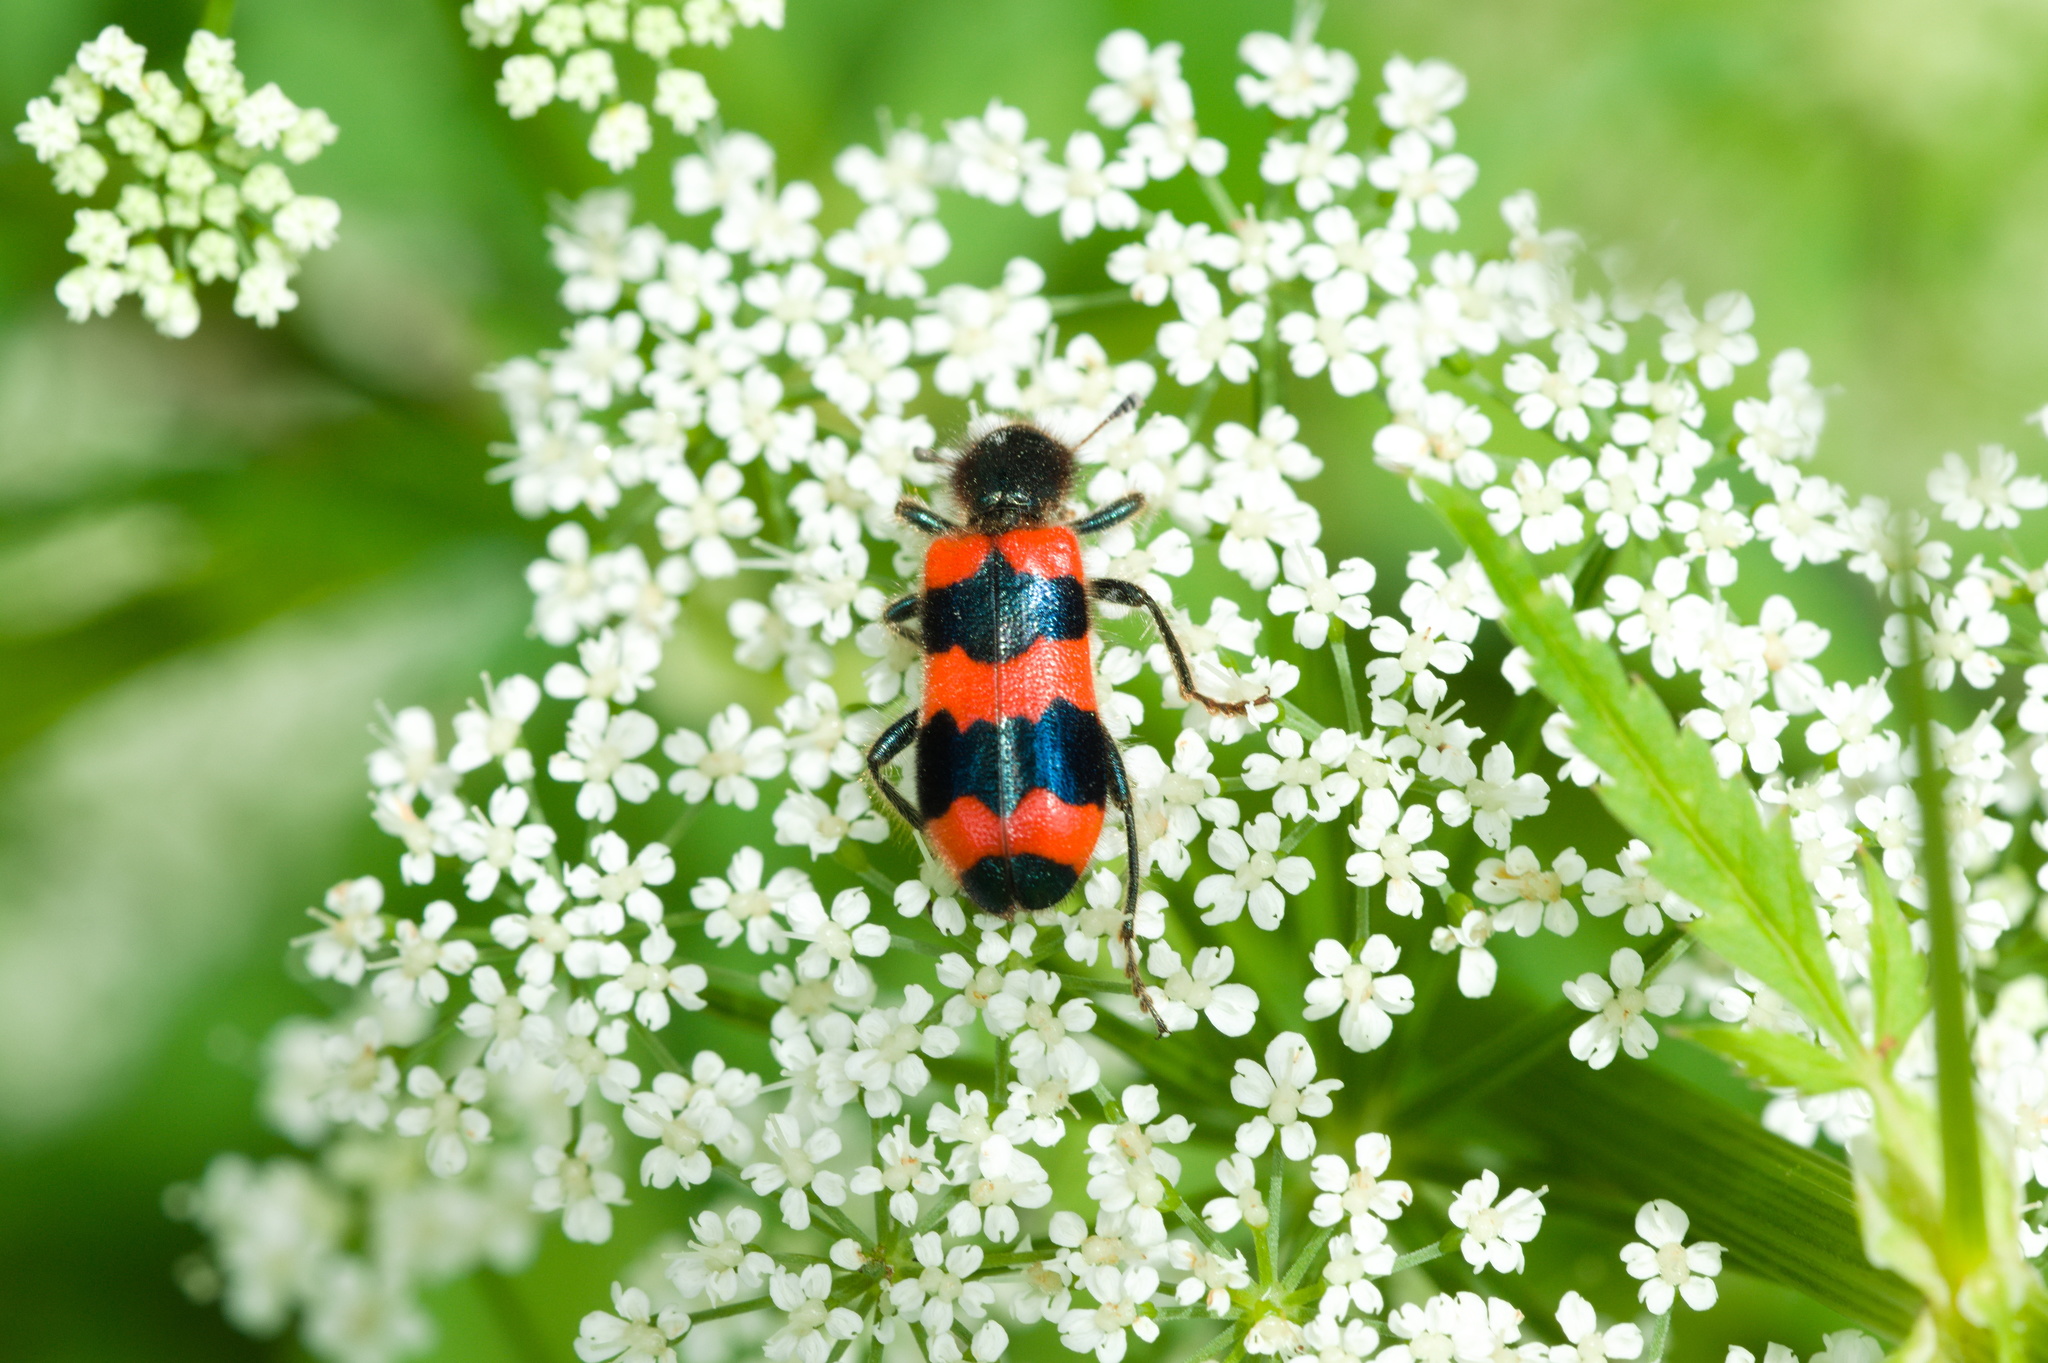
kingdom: Animalia
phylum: Arthropoda
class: Insecta
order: Coleoptera
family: Cleridae
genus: Trichodes
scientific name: Trichodes apiarius
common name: Bee-eating beetle
